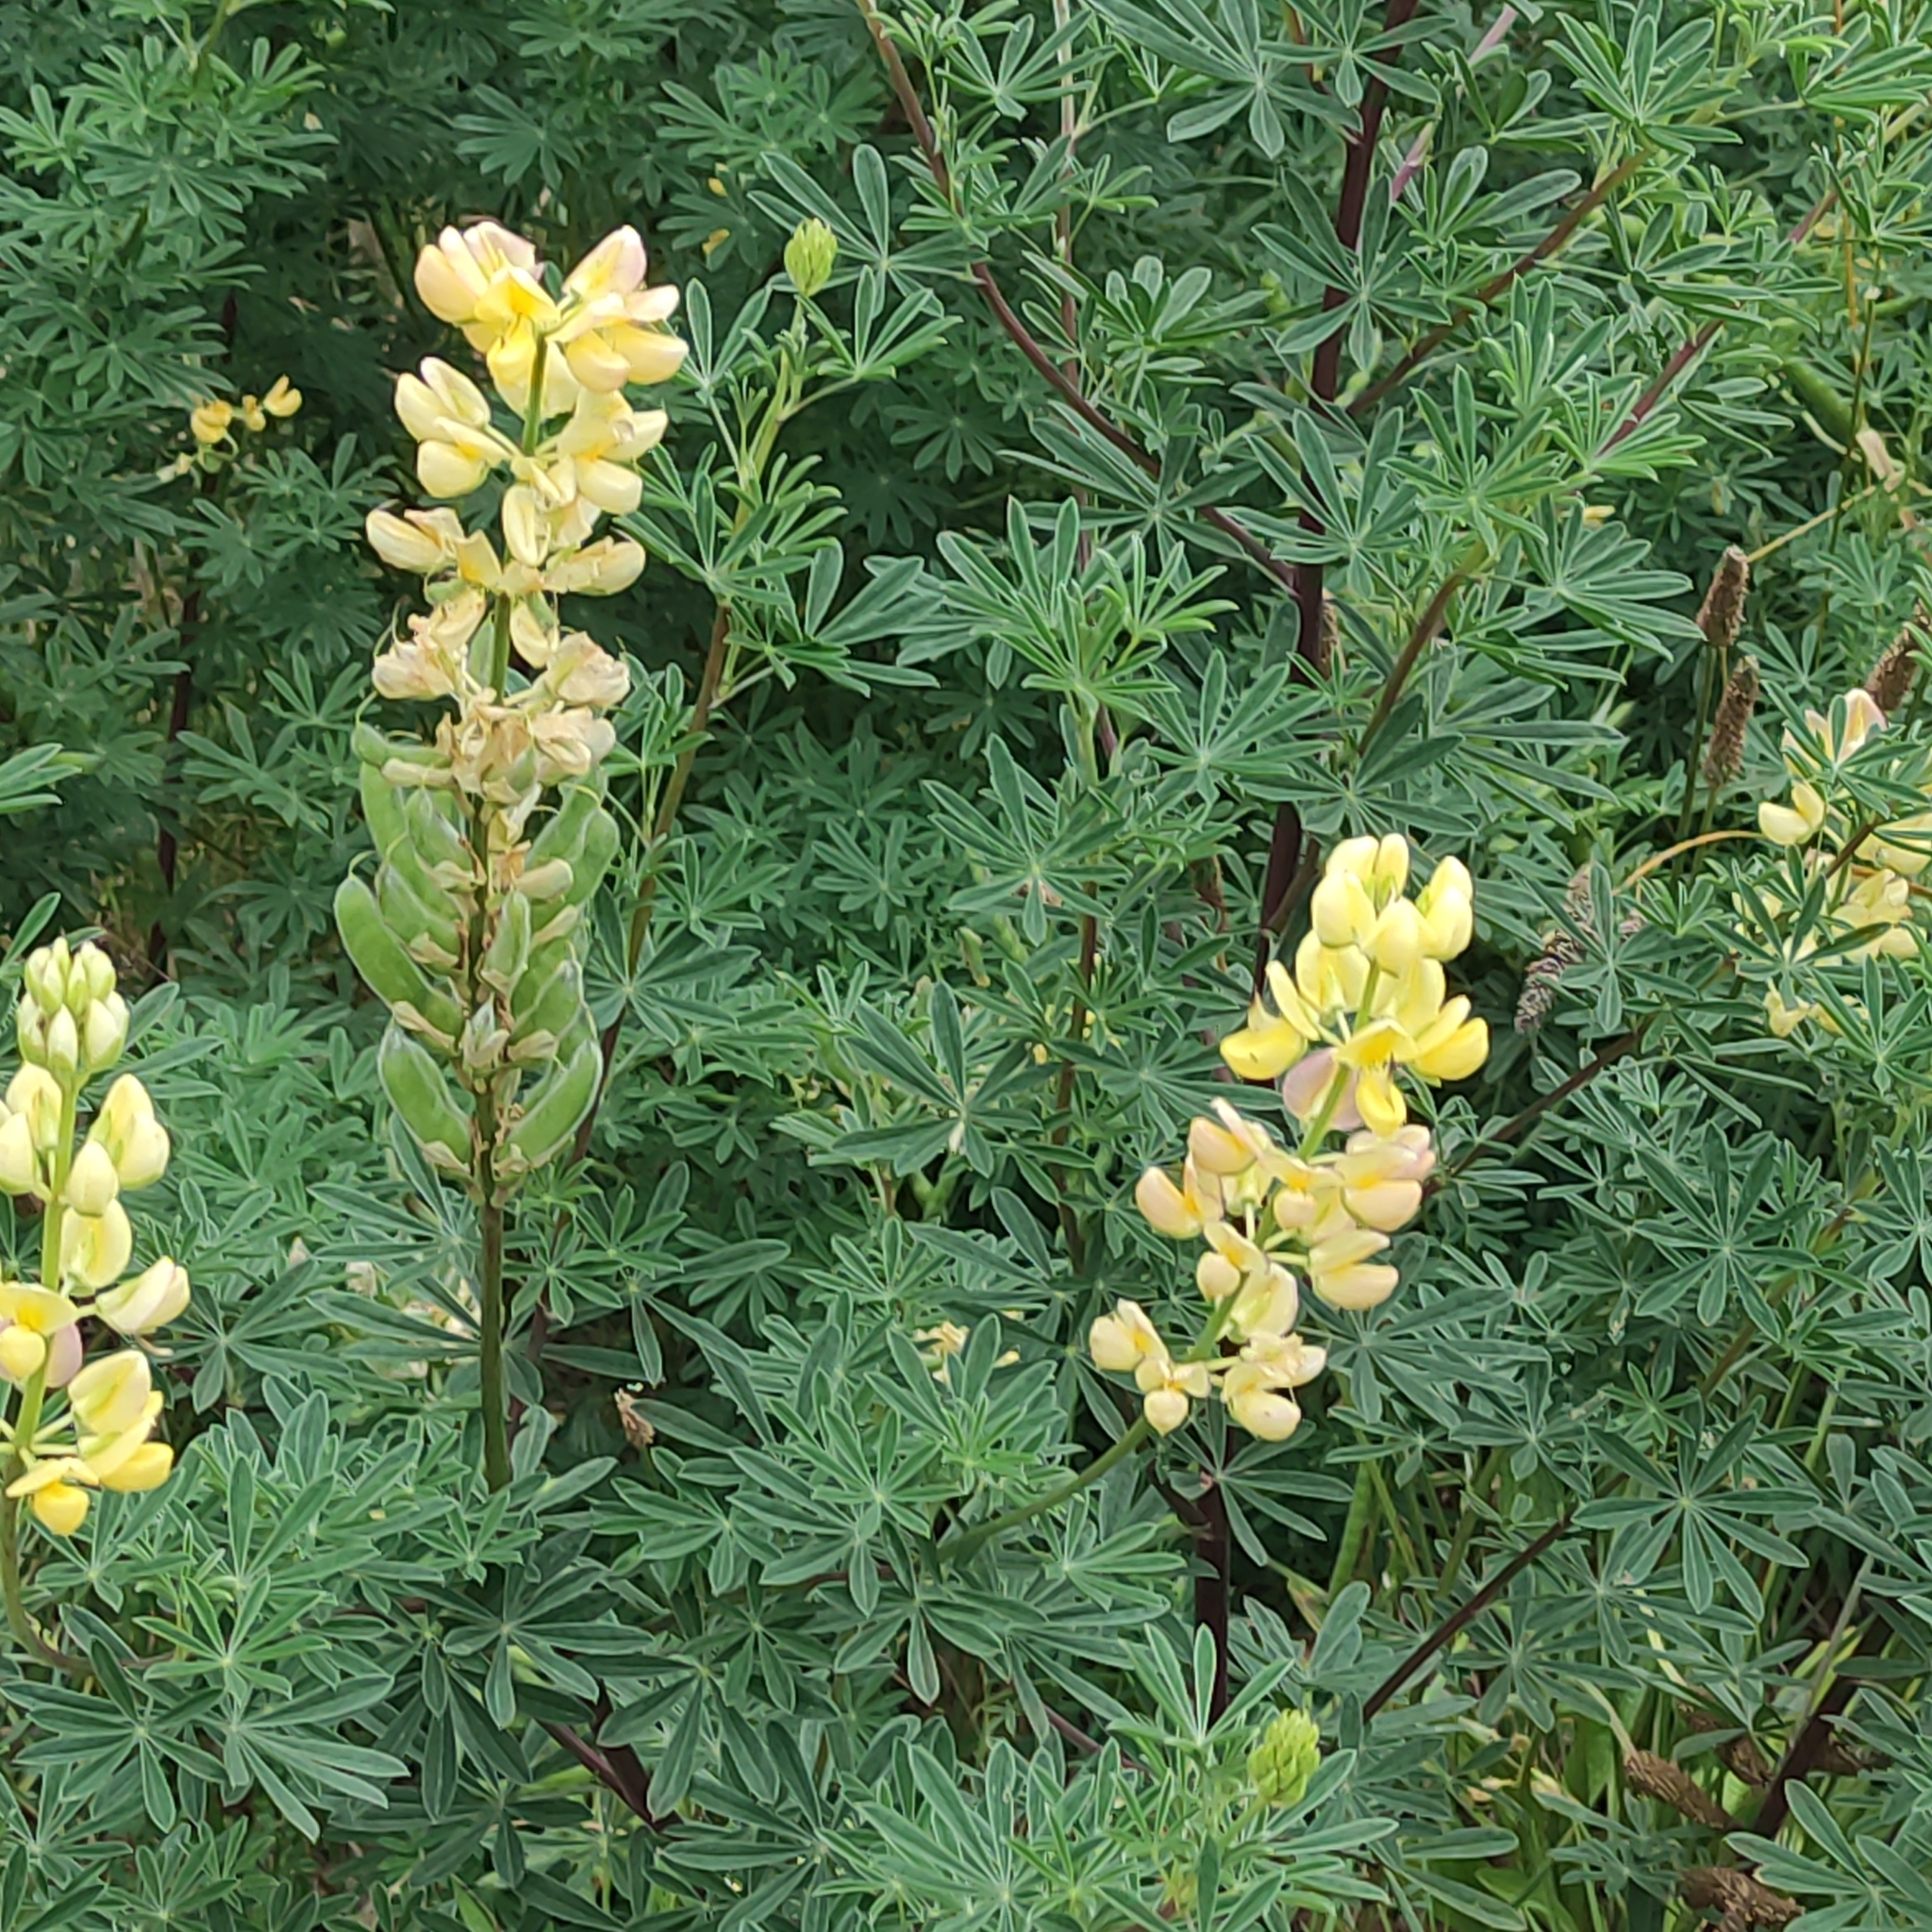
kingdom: Plantae
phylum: Tracheophyta
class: Magnoliopsida
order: Fabales
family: Fabaceae
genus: Lupinus
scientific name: Lupinus arboreus
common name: Yellow bush lupine
